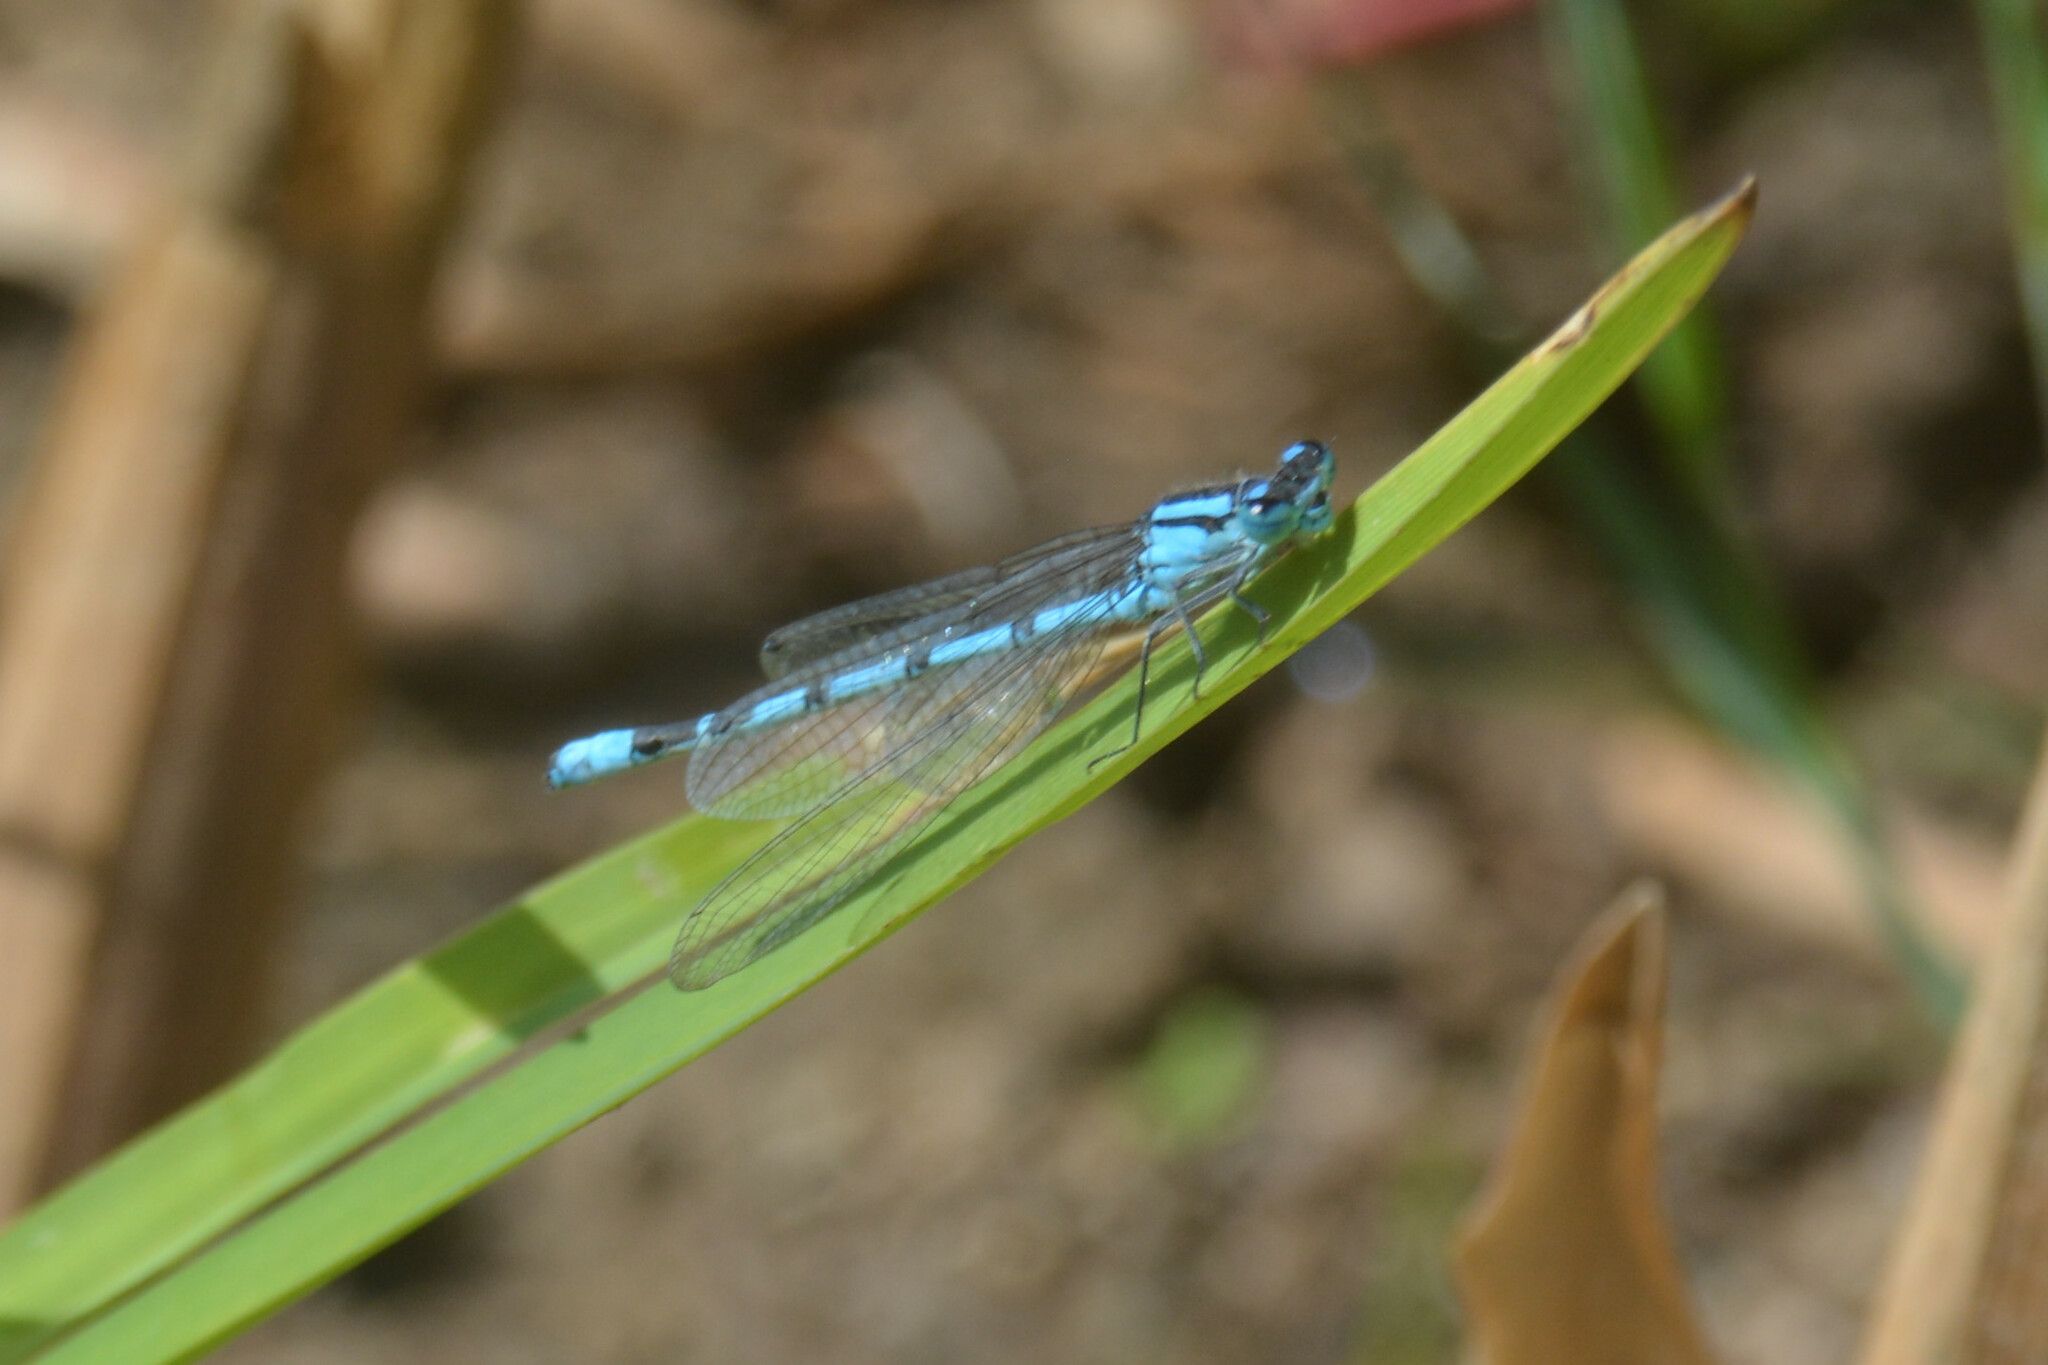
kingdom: Animalia
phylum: Arthropoda
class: Insecta
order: Odonata
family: Coenagrionidae
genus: Enallagma
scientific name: Enallagma cyathigerum
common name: Common blue damselfly
